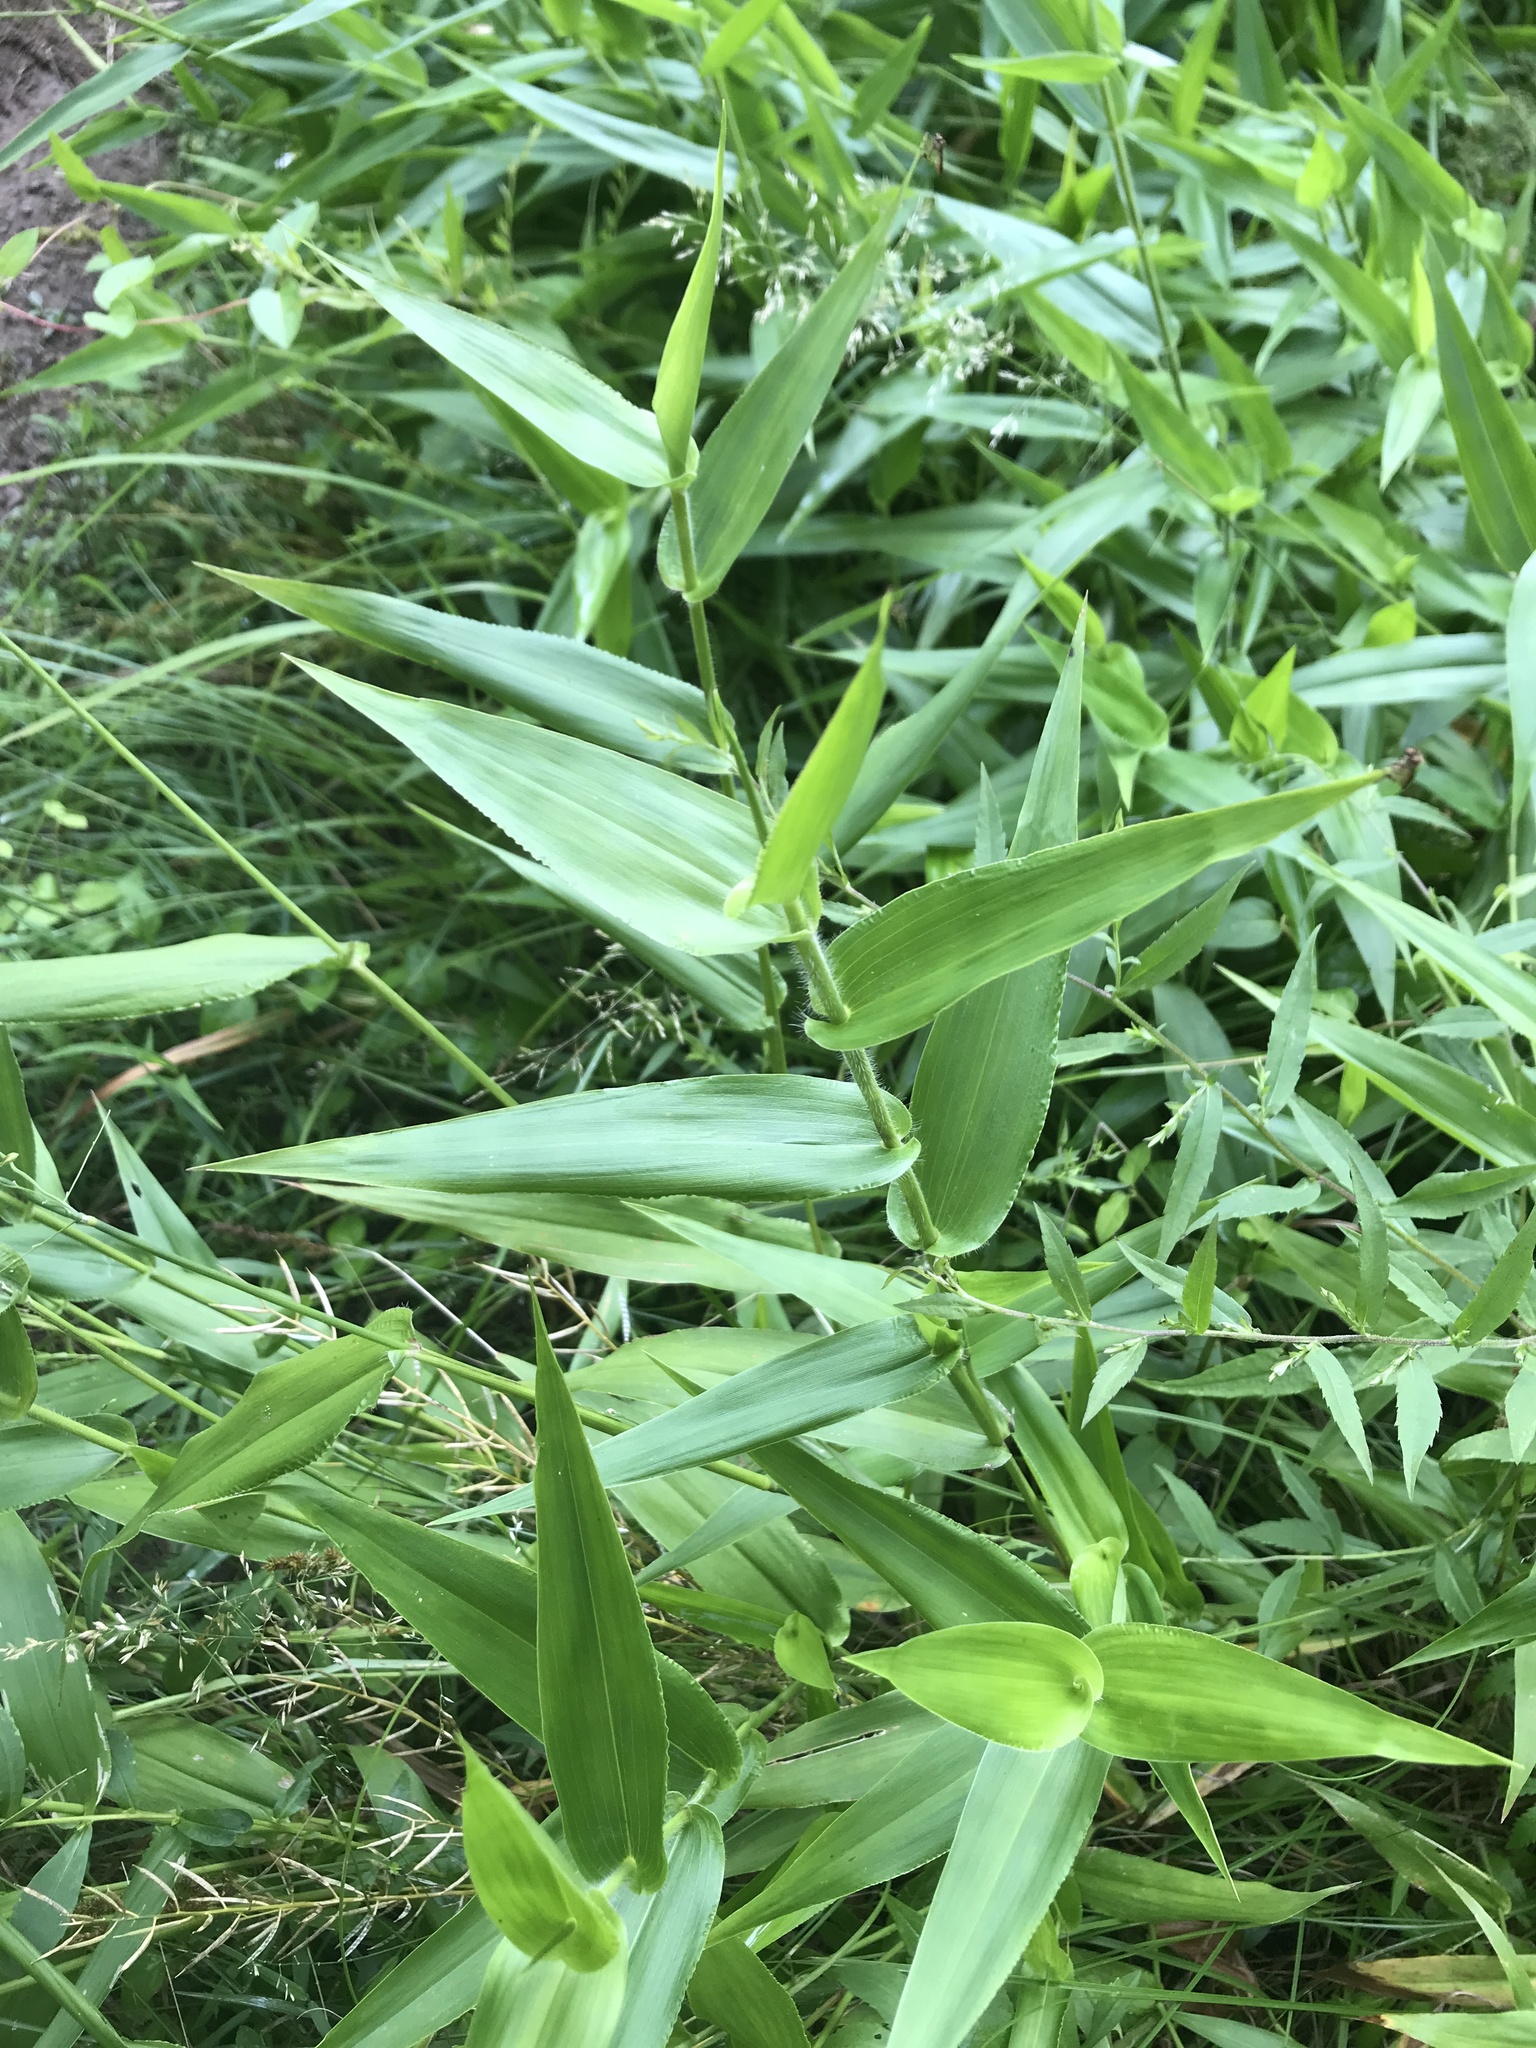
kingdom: Plantae
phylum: Tracheophyta
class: Liliopsida
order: Poales
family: Poaceae
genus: Dichanthelium
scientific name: Dichanthelium clandestinum
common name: Deer-tongue grass
